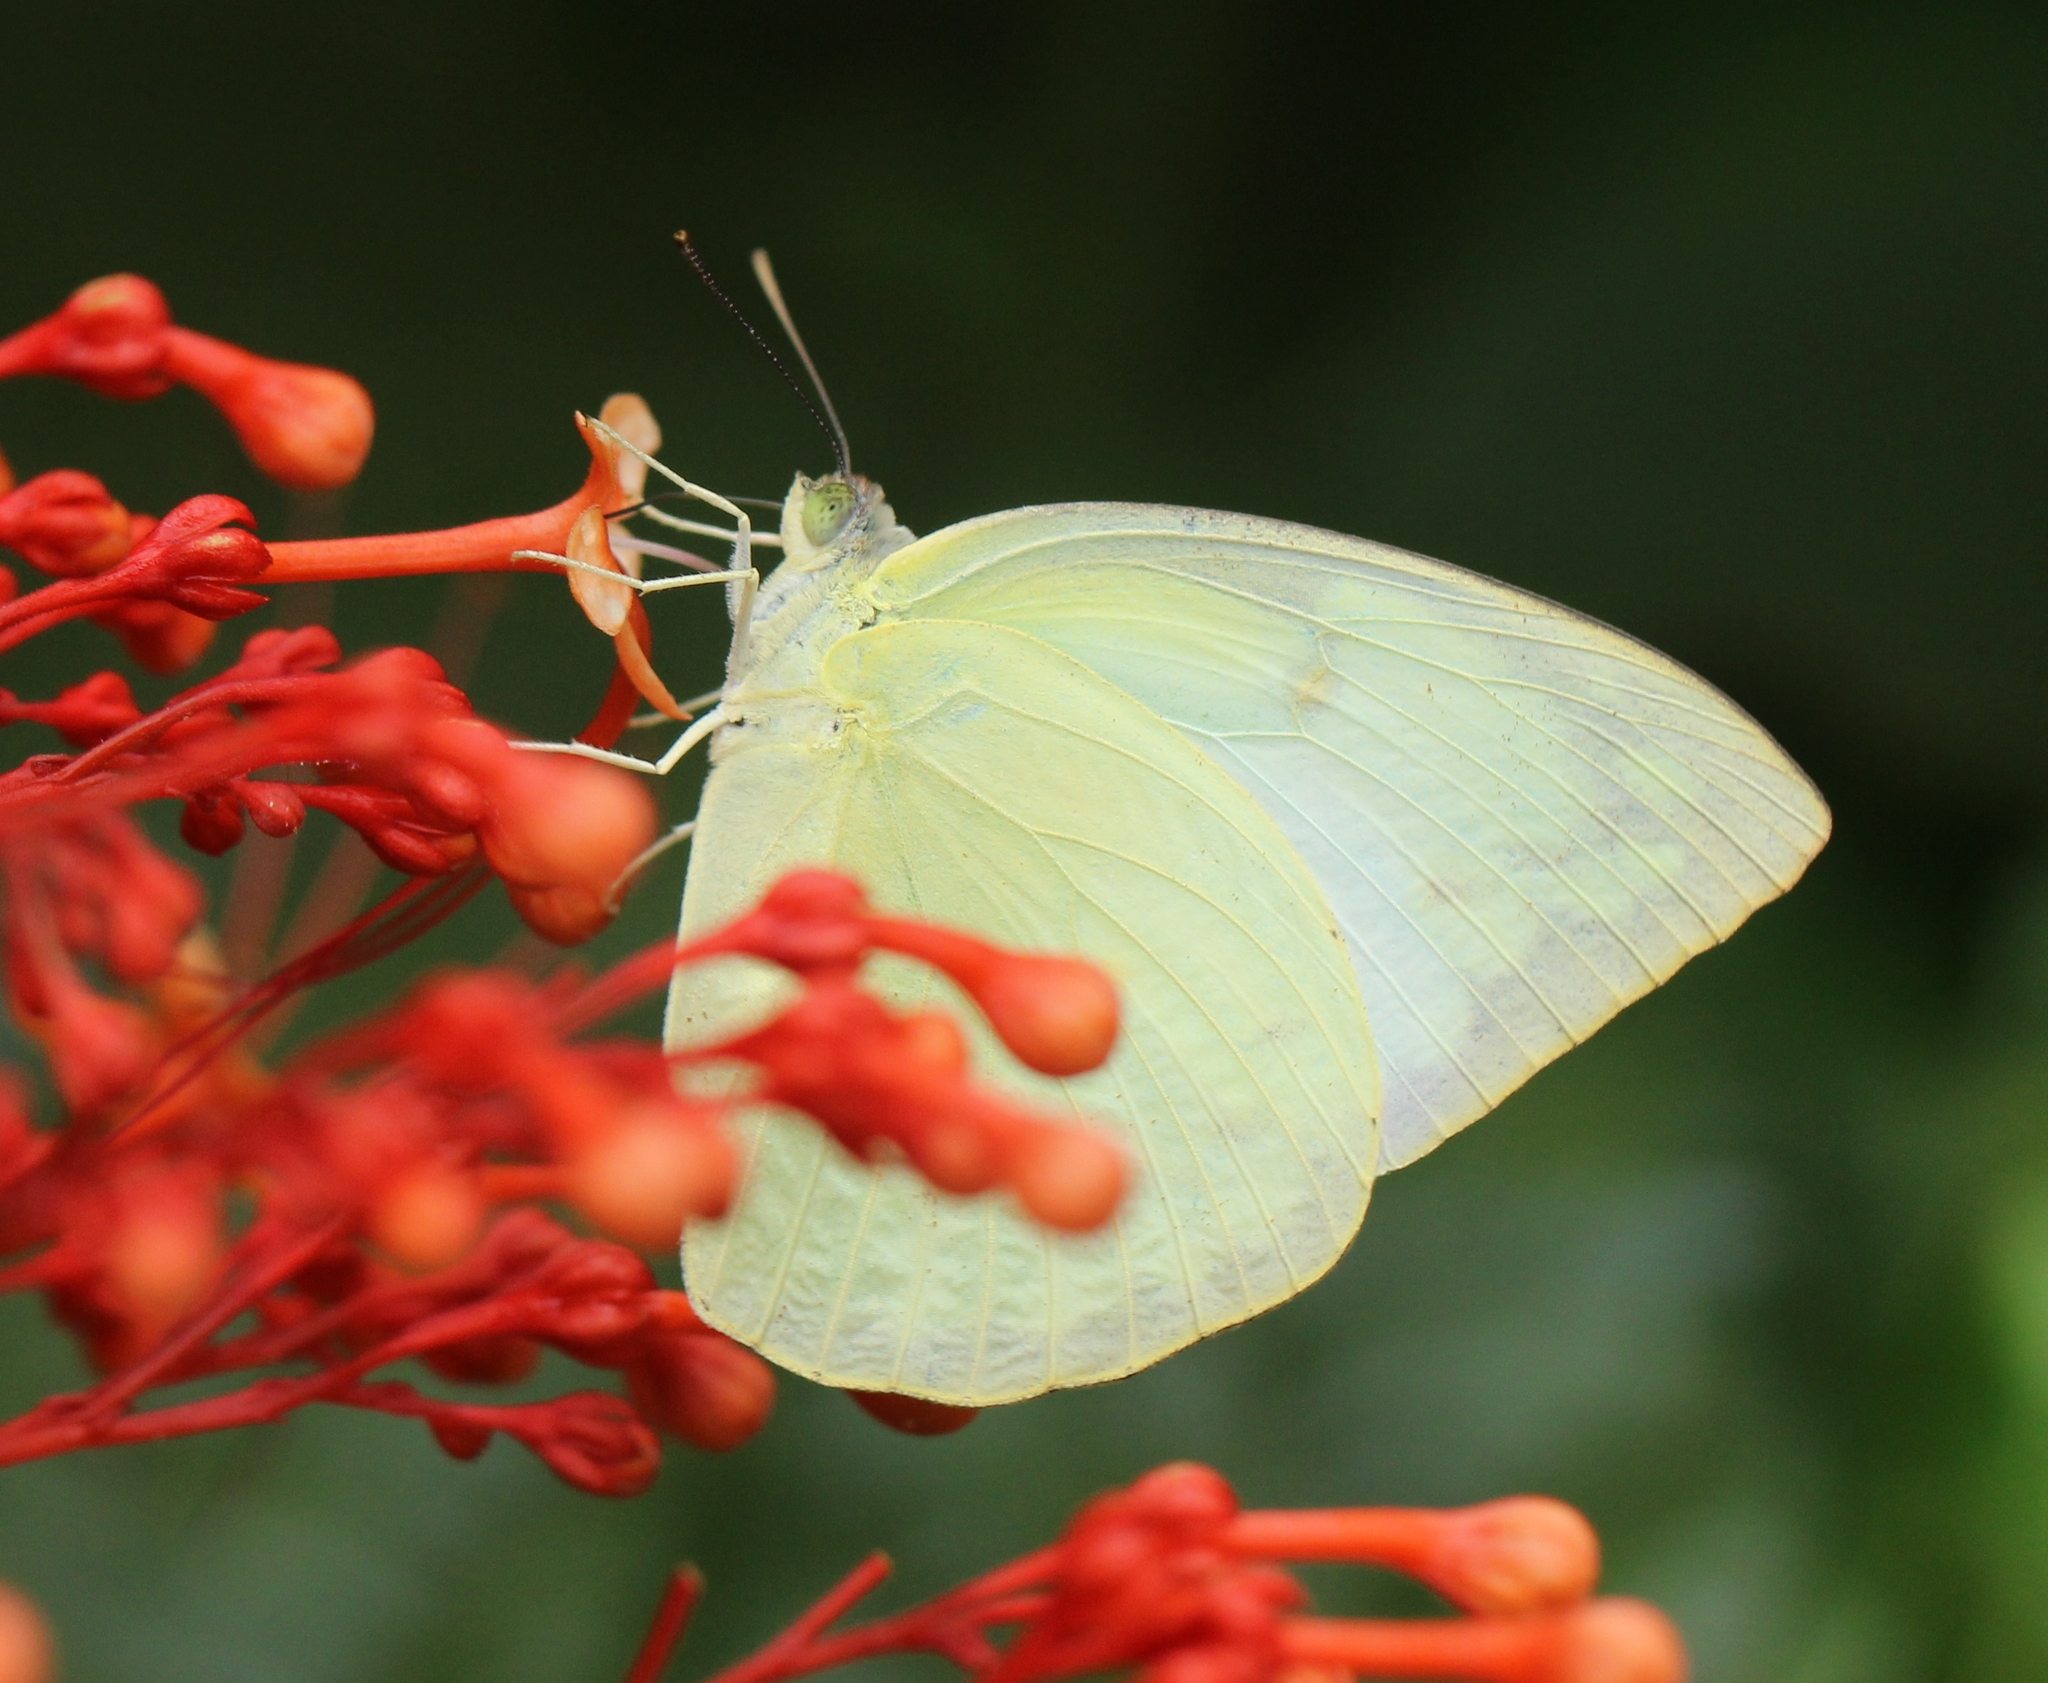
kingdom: Animalia
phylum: Arthropoda
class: Insecta
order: Lepidoptera
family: Pieridae
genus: Catopsilia
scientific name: Catopsilia pomona
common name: Common emigrant
